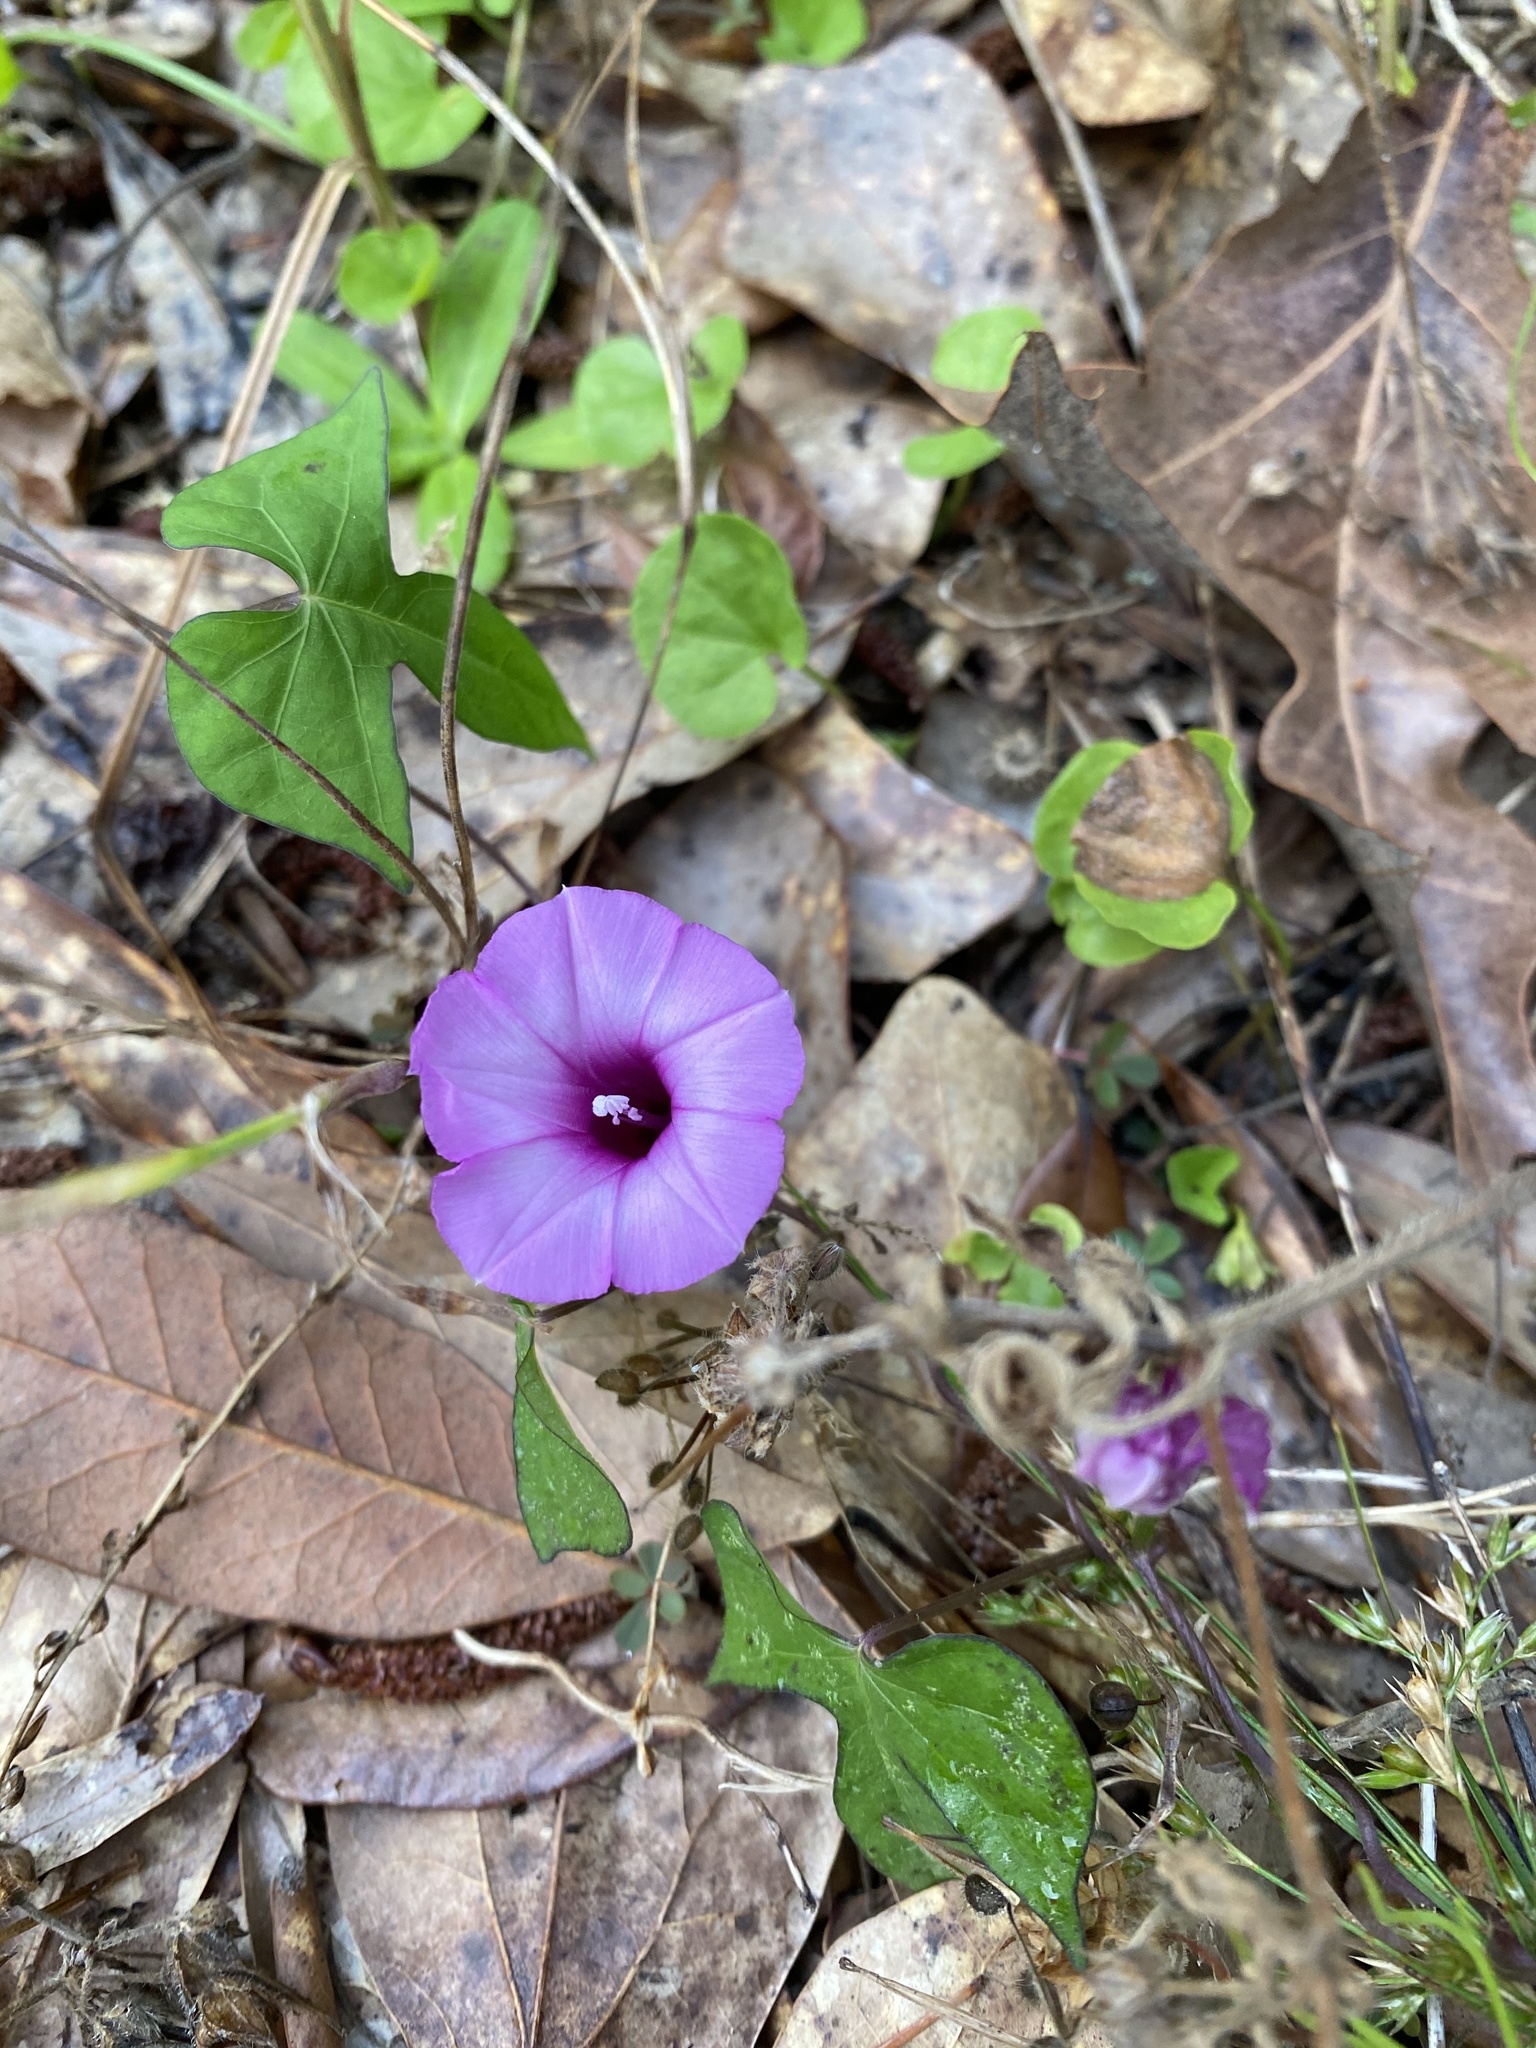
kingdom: Plantae
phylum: Tracheophyta
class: Magnoliopsida
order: Solanales
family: Convolvulaceae
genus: Ipomoea
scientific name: Ipomoea cordatotriloba
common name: Cotton morning glory
